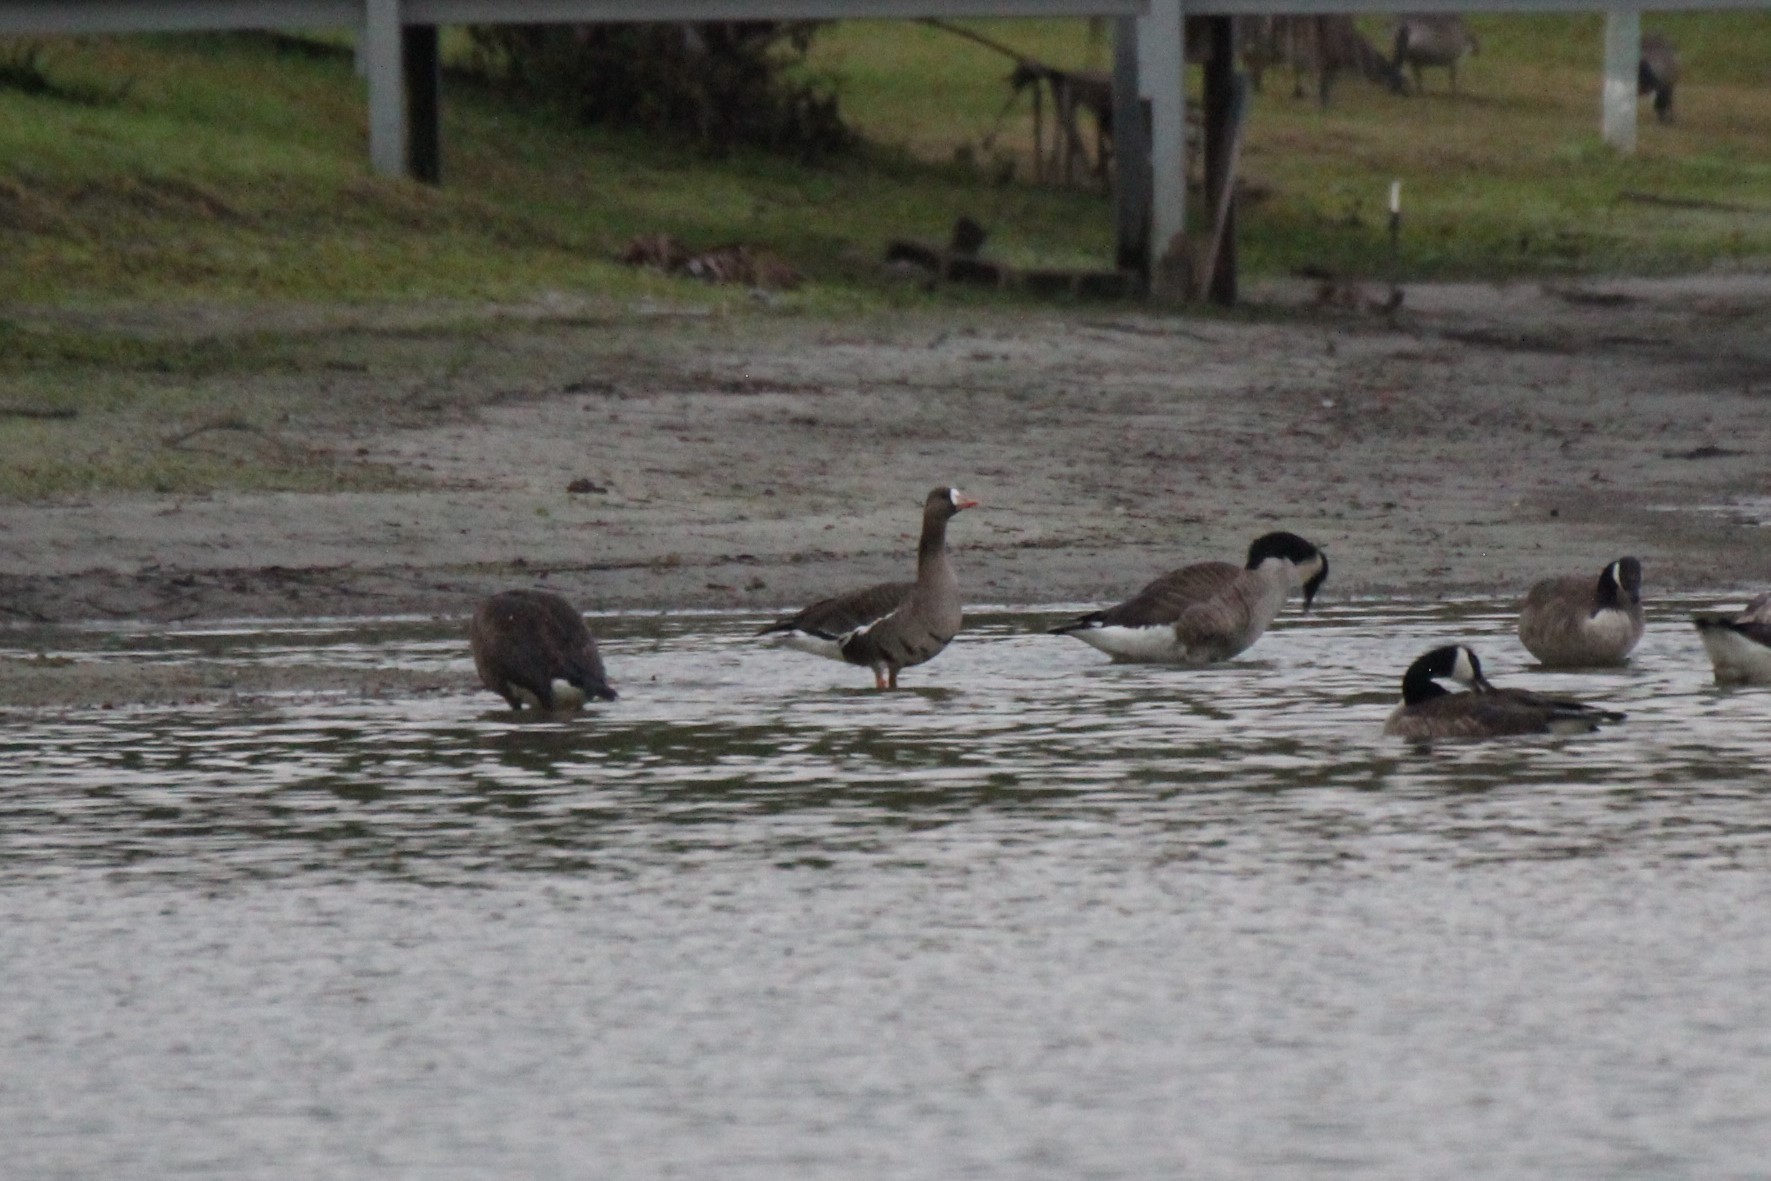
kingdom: Animalia
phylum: Chordata
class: Aves
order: Anseriformes
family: Anatidae
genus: Anser
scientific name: Anser albifrons
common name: Greater white-fronted goose
